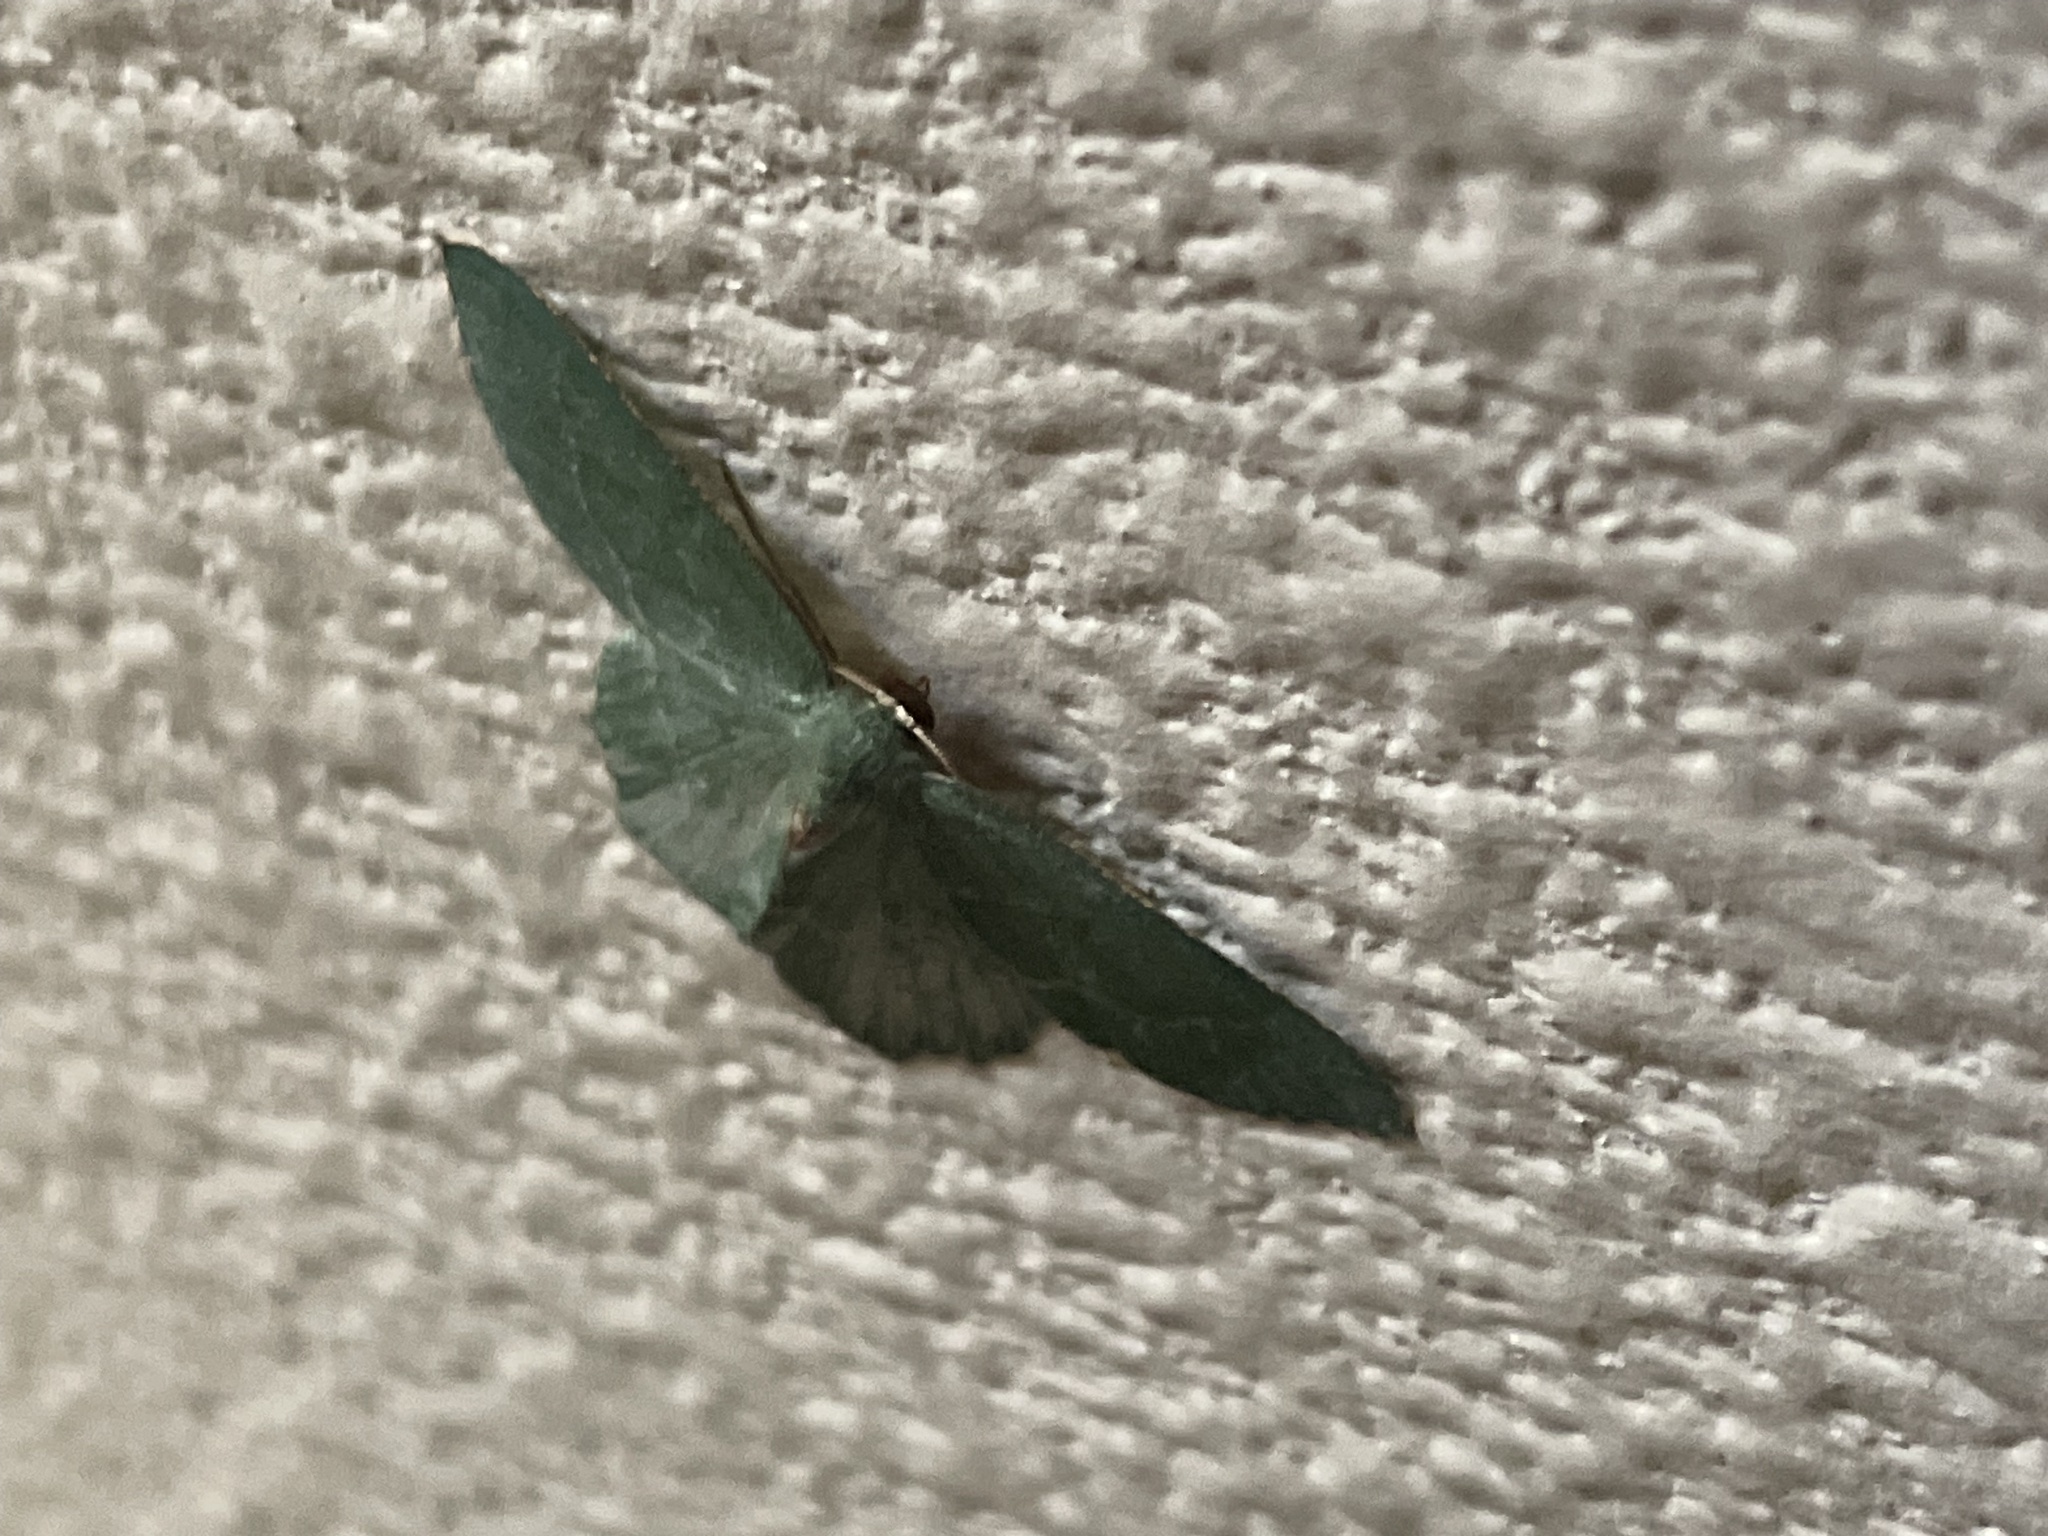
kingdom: Animalia
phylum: Arthropoda
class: Insecta
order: Lepidoptera
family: Geometridae
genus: Hemithea
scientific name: Hemithea aestivaria
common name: Common emerald
